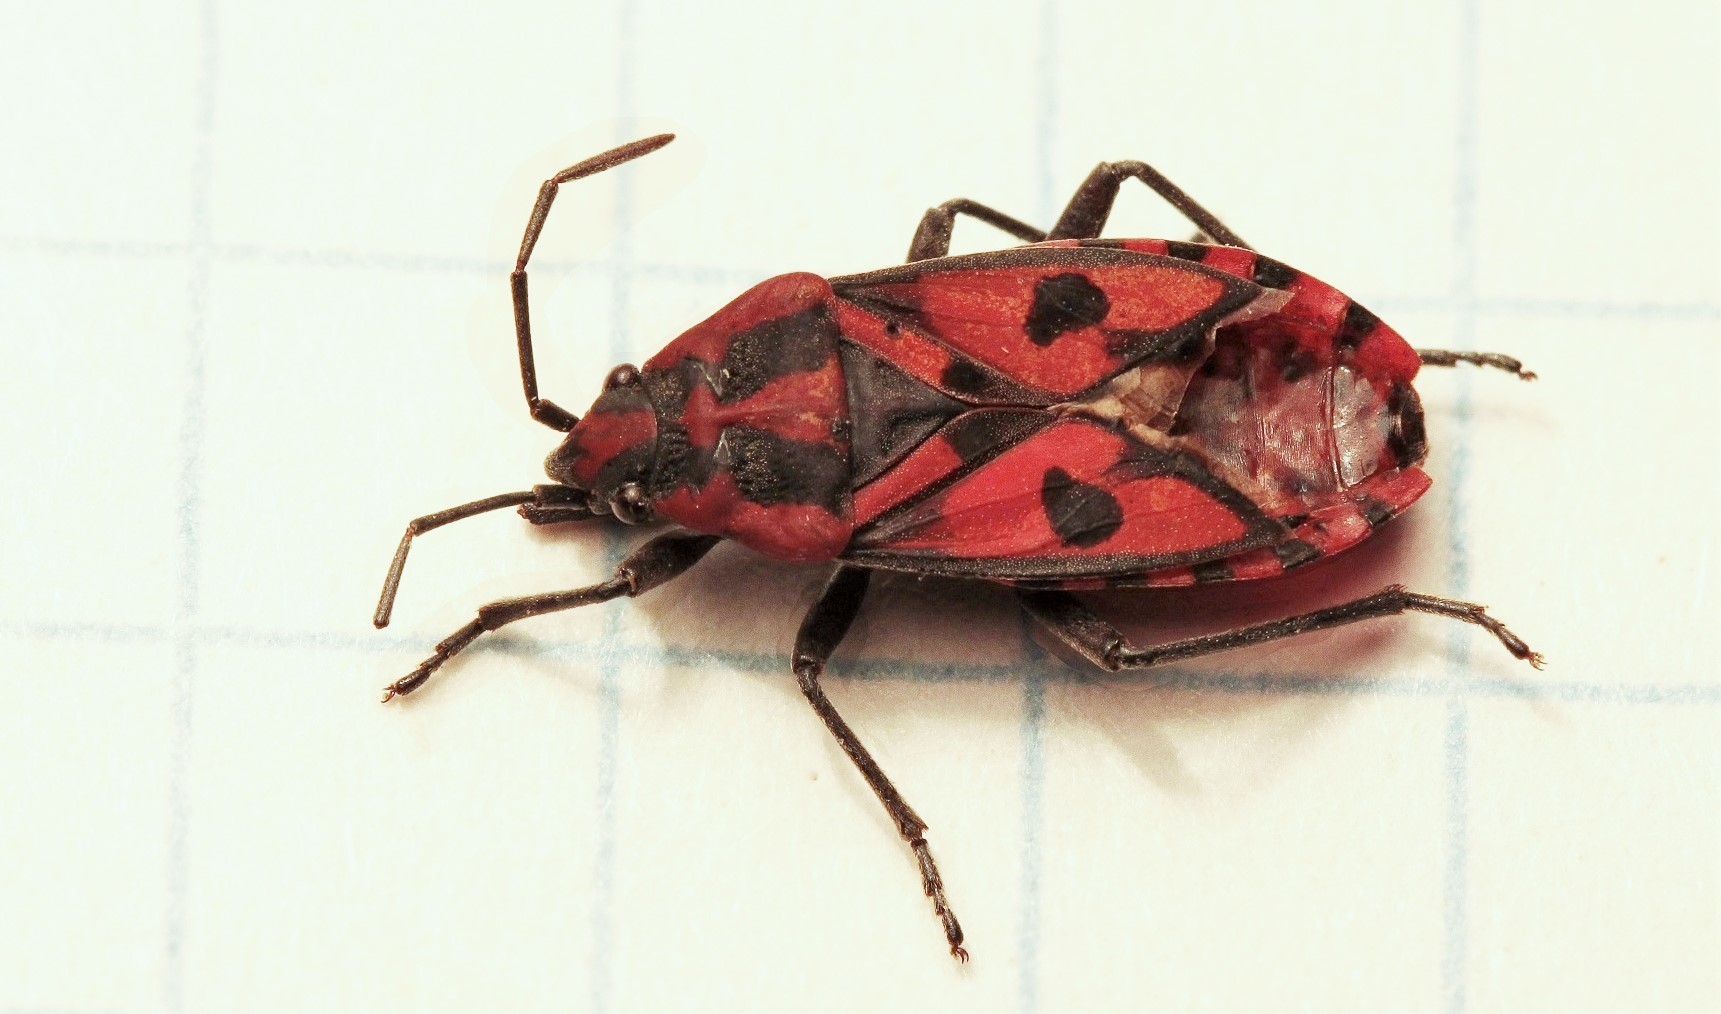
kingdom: Animalia
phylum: Arthropoda
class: Insecta
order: Hemiptera
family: Lygaeidae
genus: Spilostethus
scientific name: Spilostethus saxatilis
